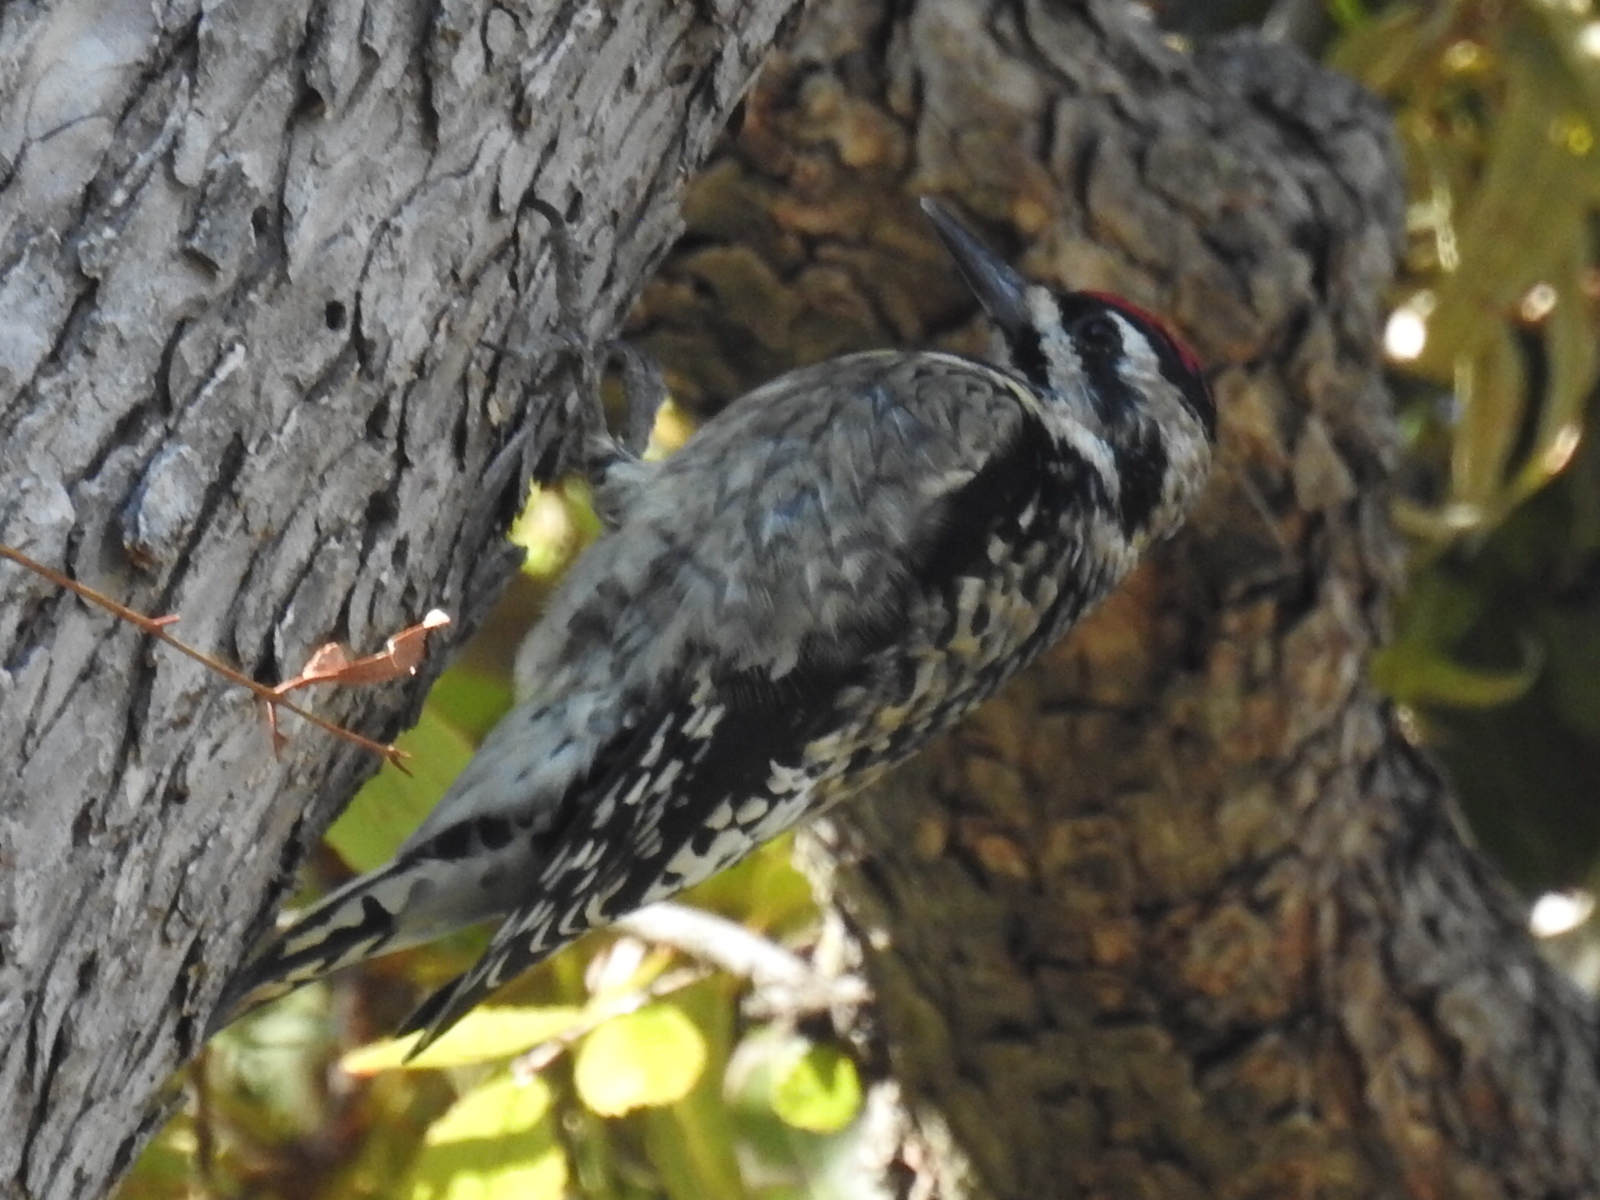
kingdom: Animalia
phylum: Chordata
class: Aves
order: Piciformes
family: Picidae
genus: Sphyrapicus
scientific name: Sphyrapicus varius
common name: Yellow-bellied sapsucker
